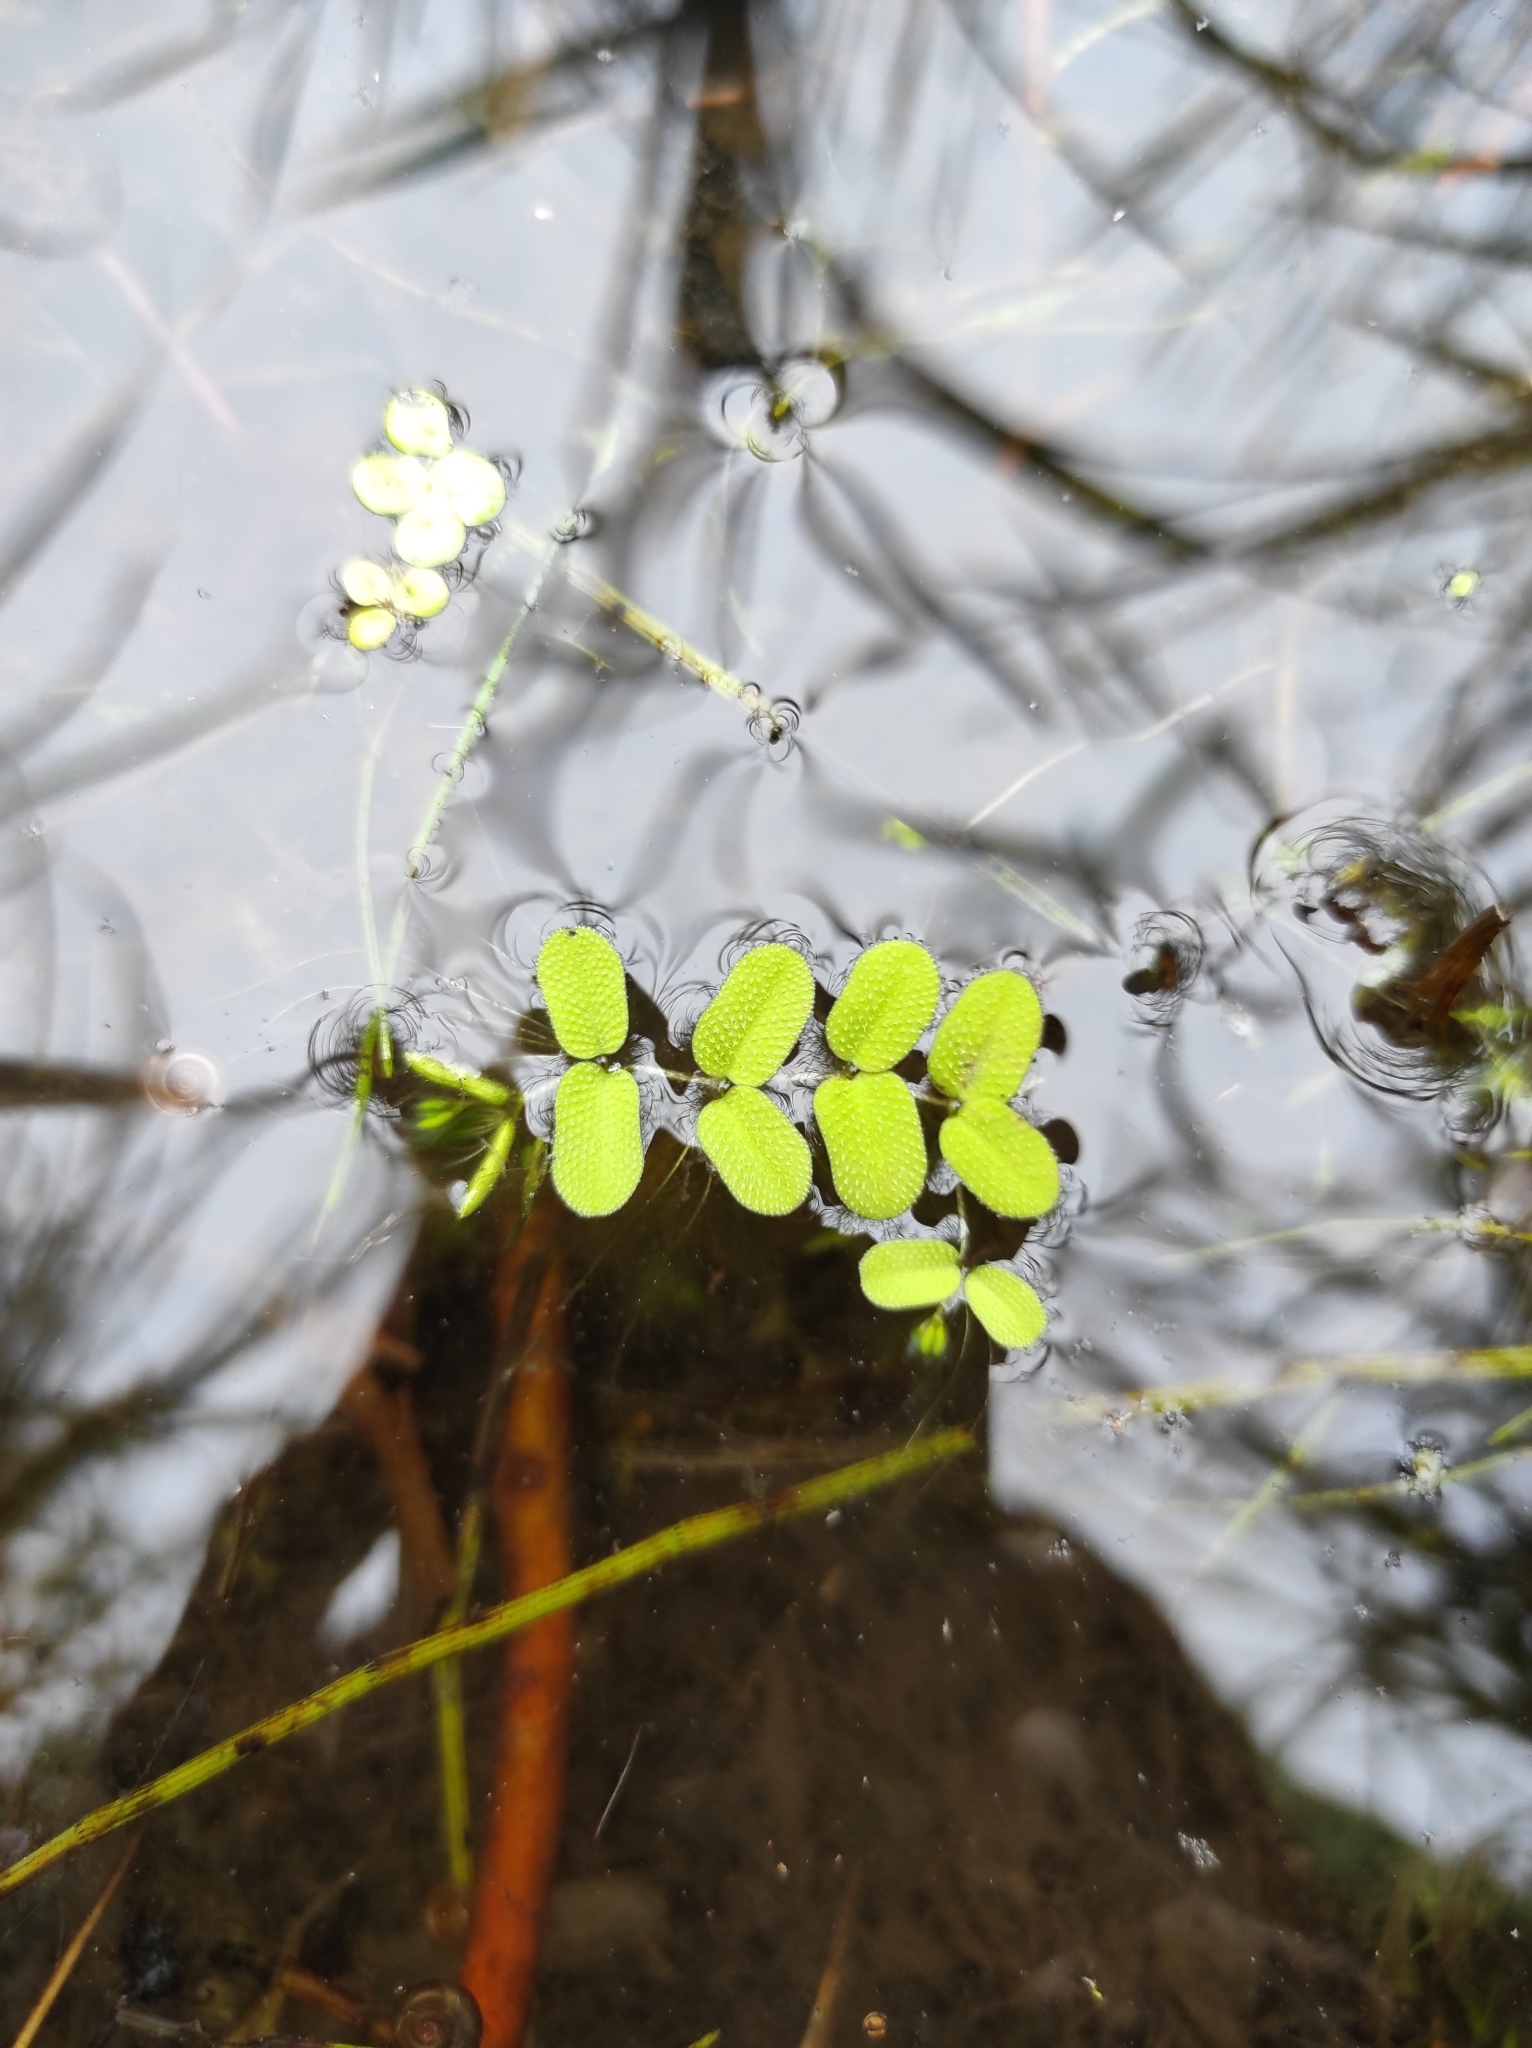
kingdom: Plantae
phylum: Tracheophyta
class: Polypodiopsida
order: Salviniales
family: Salviniaceae
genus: Salvinia
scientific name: Salvinia natans
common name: Floating fern
